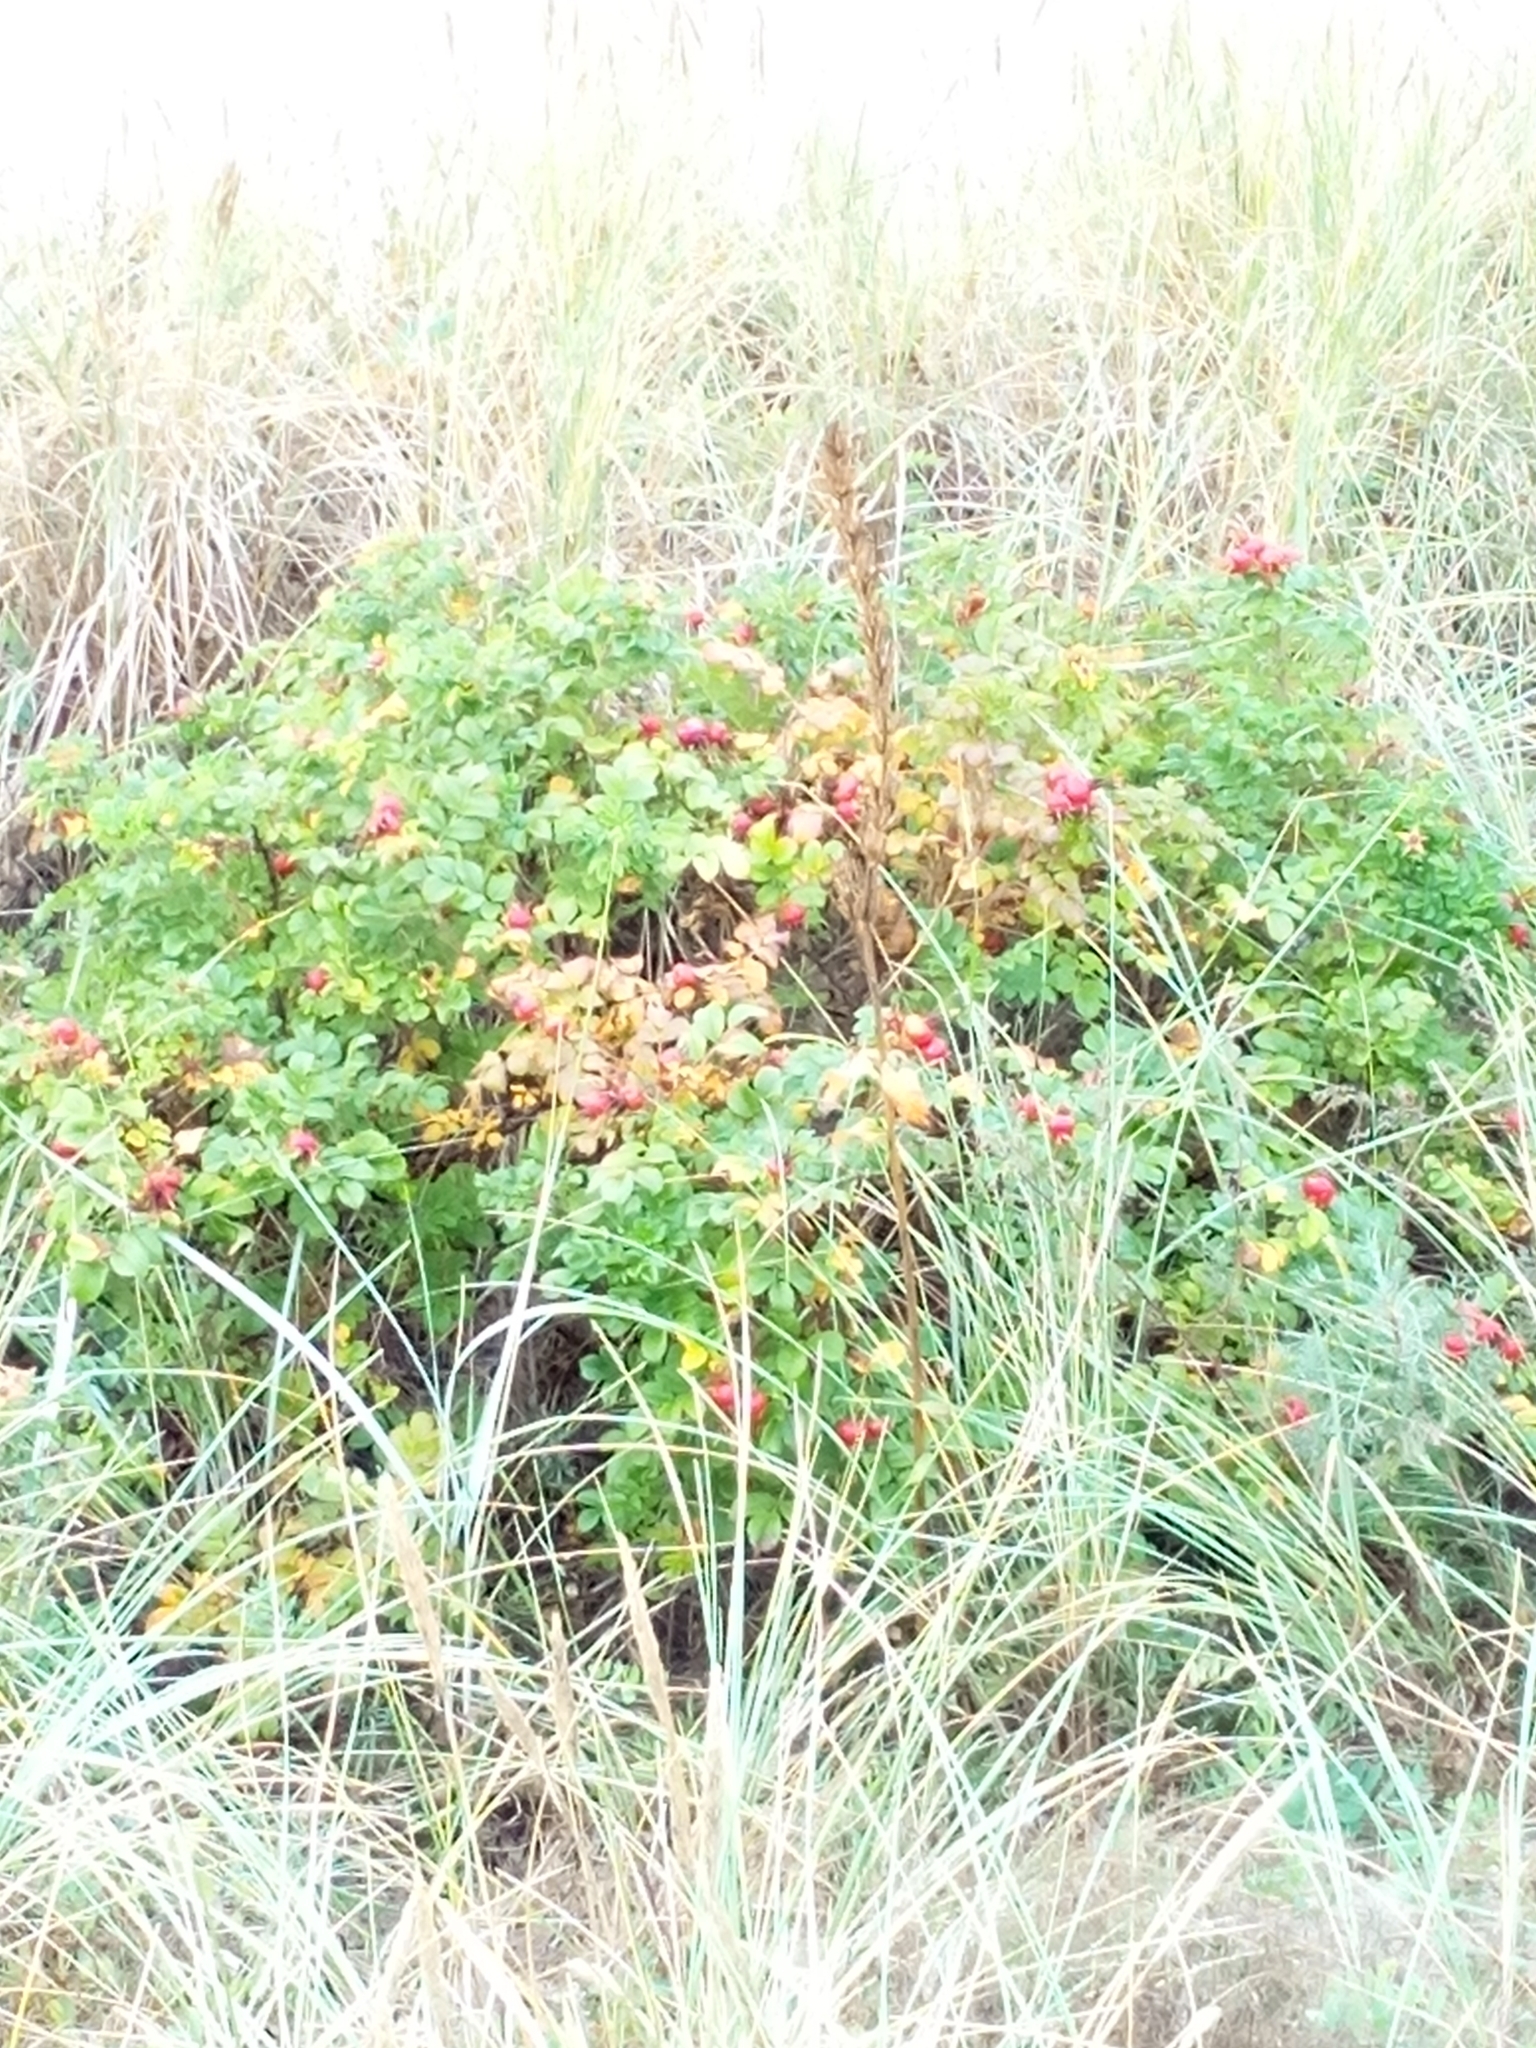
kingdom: Plantae
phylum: Tracheophyta
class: Magnoliopsida
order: Rosales
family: Rosaceae
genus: Rosa
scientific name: Rosa rugosa
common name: Japanese rose
